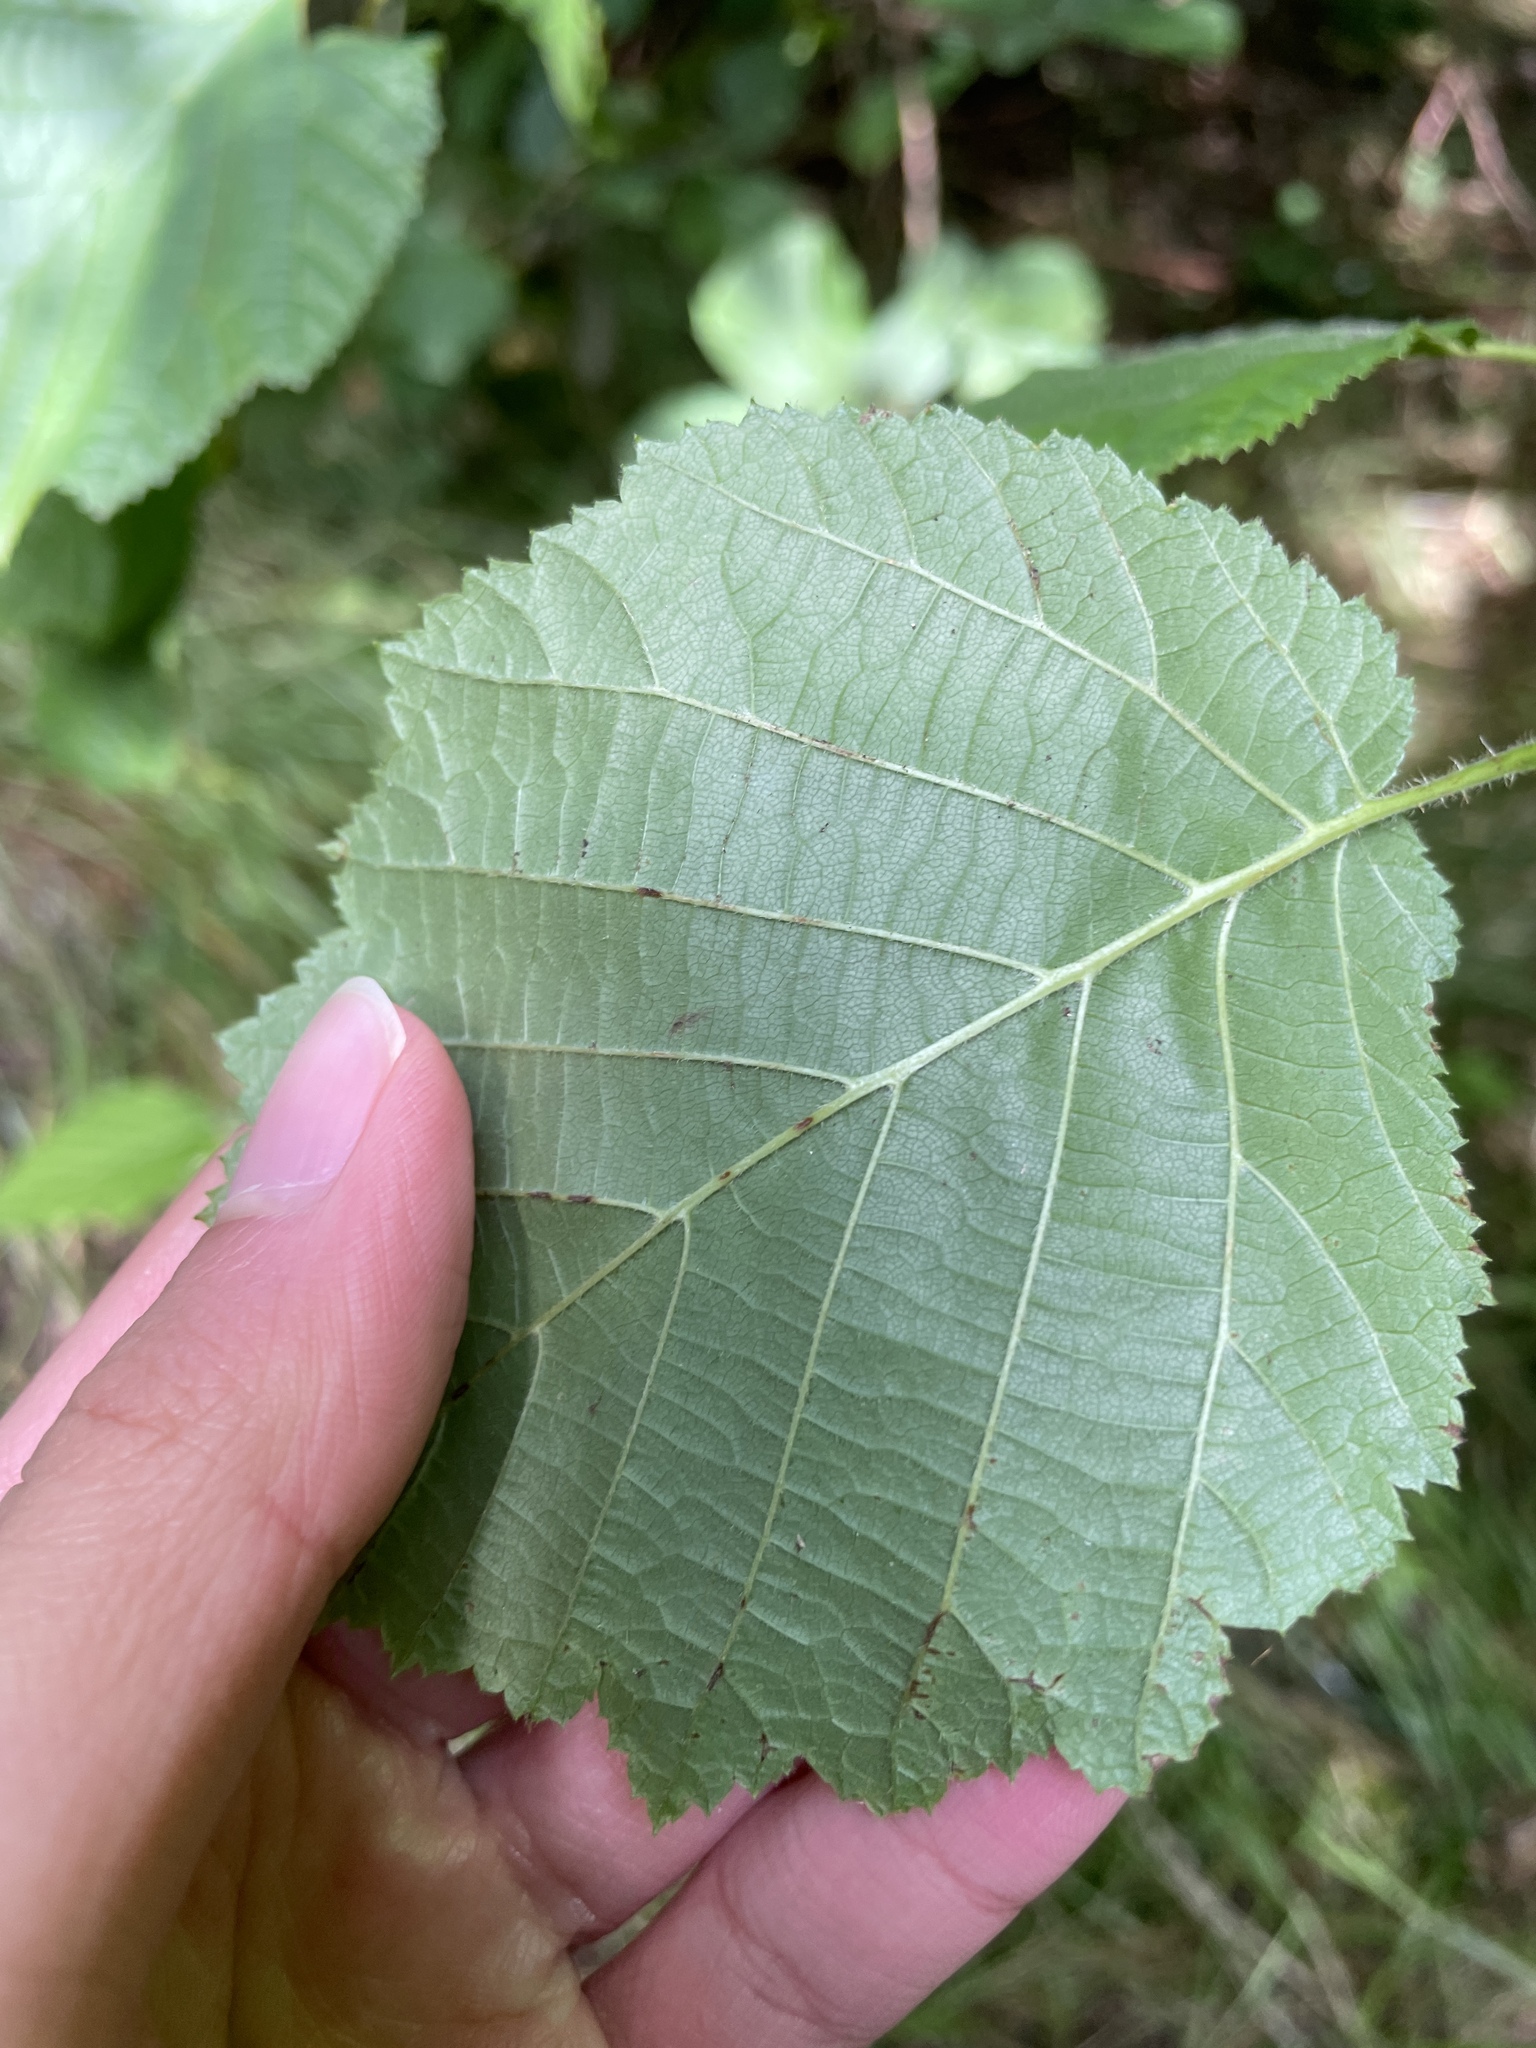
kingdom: Plantae
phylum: Tracheophyta
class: Magnoliopsida
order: Fagales
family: Betulaceae
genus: Corylus
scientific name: Corylus avellana
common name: European hazel
